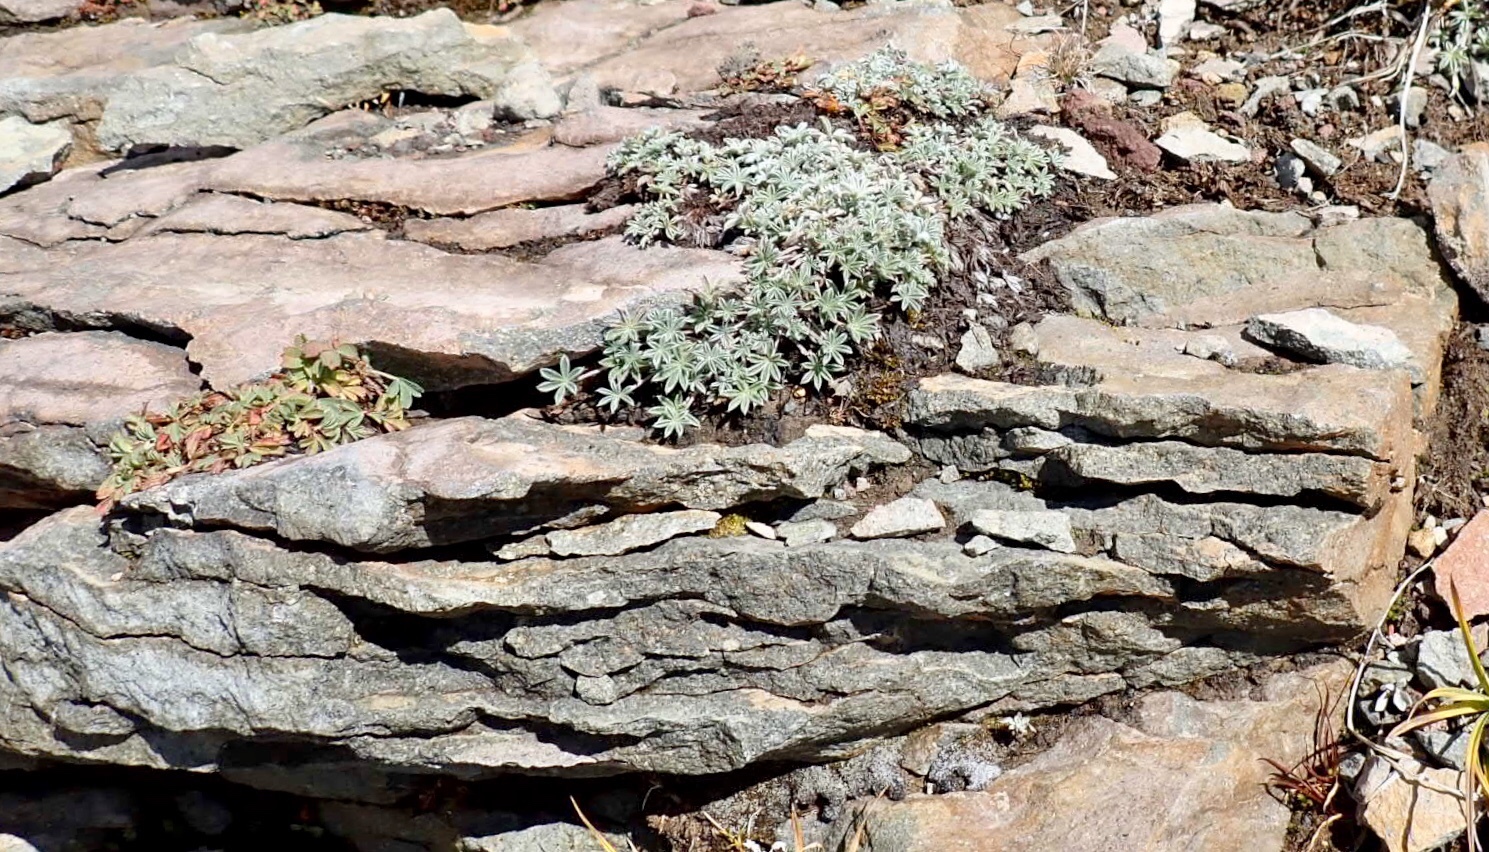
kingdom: Plantae
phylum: Tracheophyta
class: Magnoliopsida
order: Fabales
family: Fabaceae
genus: Lupinus
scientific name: Lupinus sellulus
